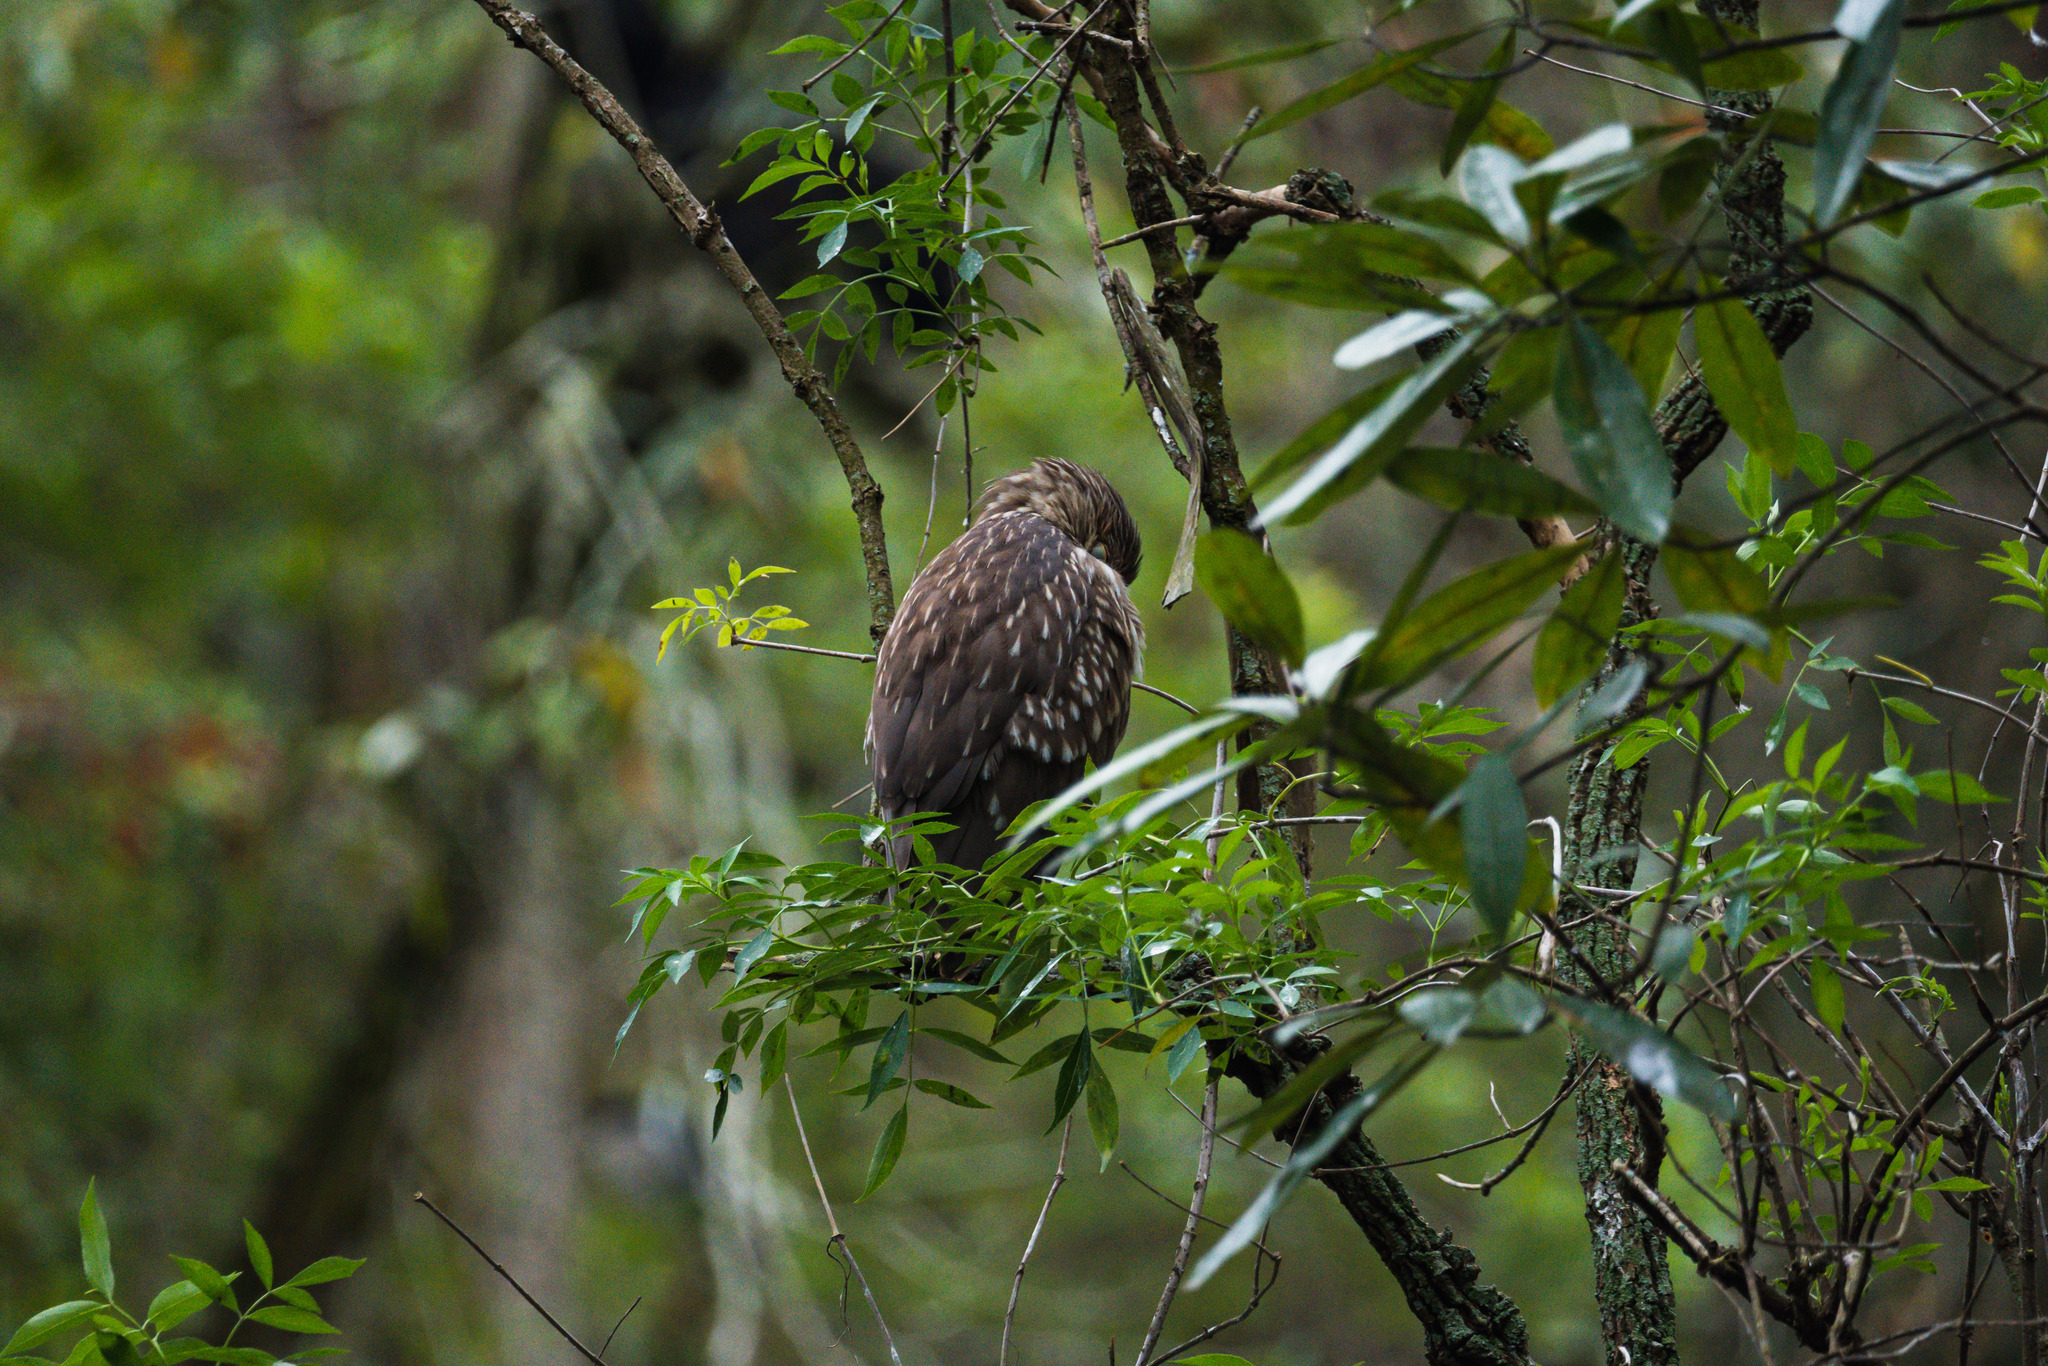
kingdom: Animalia
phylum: Chordata
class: Aves
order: Pelecaniformes
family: Ardeidae
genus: Nycticorax
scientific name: Nycticorax nycticorax
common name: Black-crowned night heron
